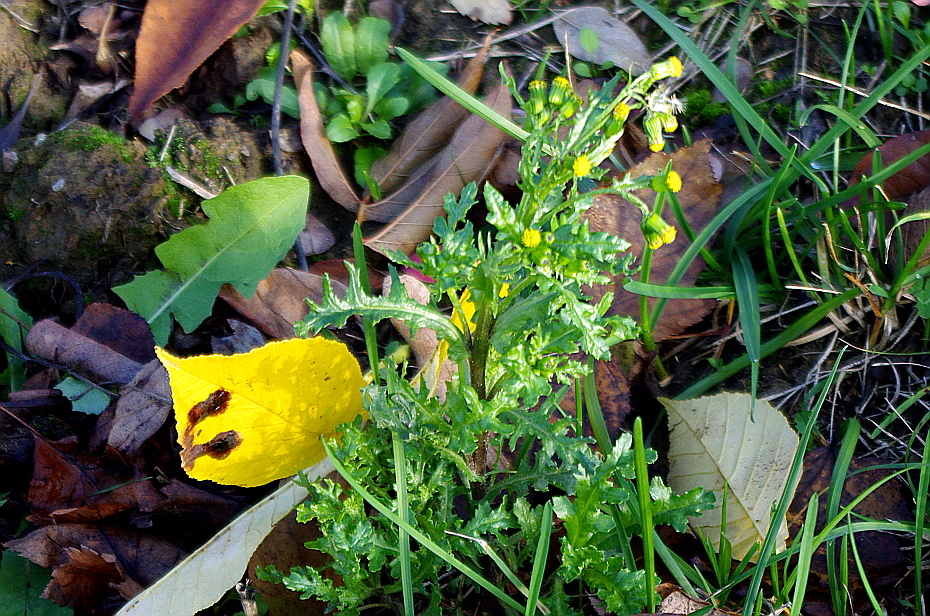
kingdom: Plantae
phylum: Tracheophyta
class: Magnoliopsida
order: Asterales
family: Asteraceae
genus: Senecio
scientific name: Senecio vulgaris
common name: Old-man-in-the-spring
